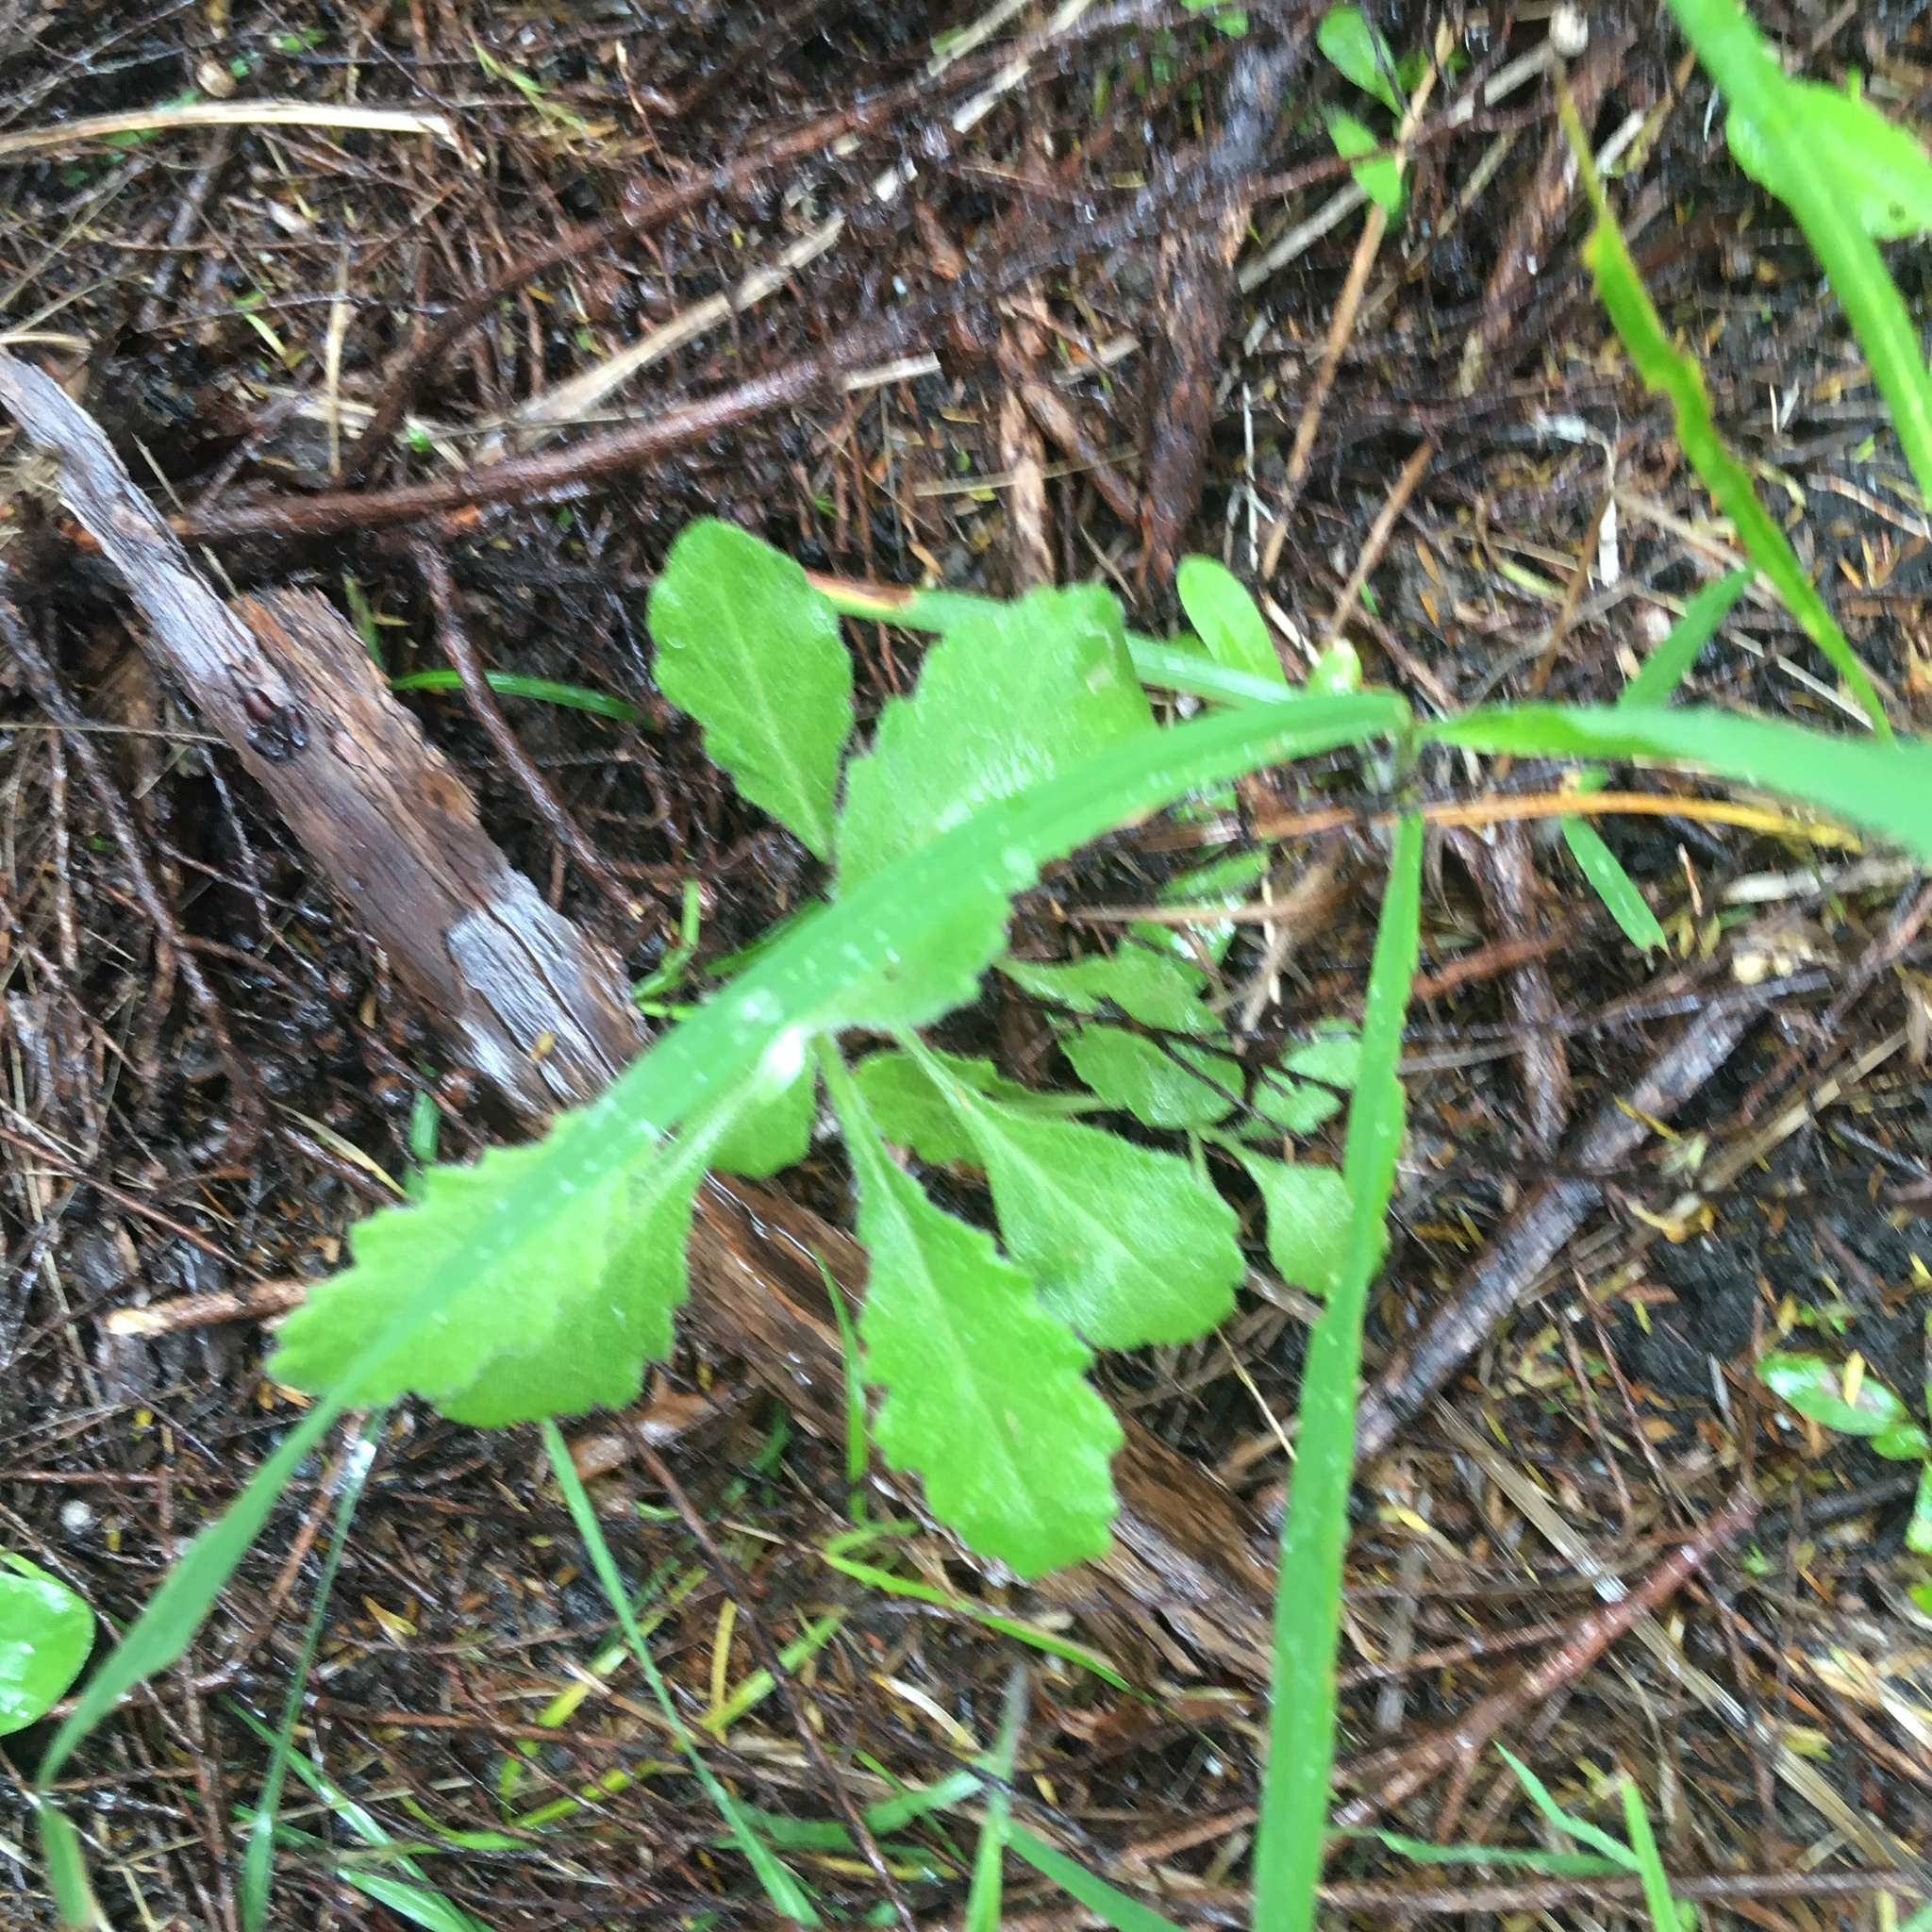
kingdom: Plantae
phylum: Tracheophyta
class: Magnoliopsida
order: Asterales
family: Asteraceae
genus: Senecio
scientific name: Senecio glomeratus
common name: Cutleaf burnweed
